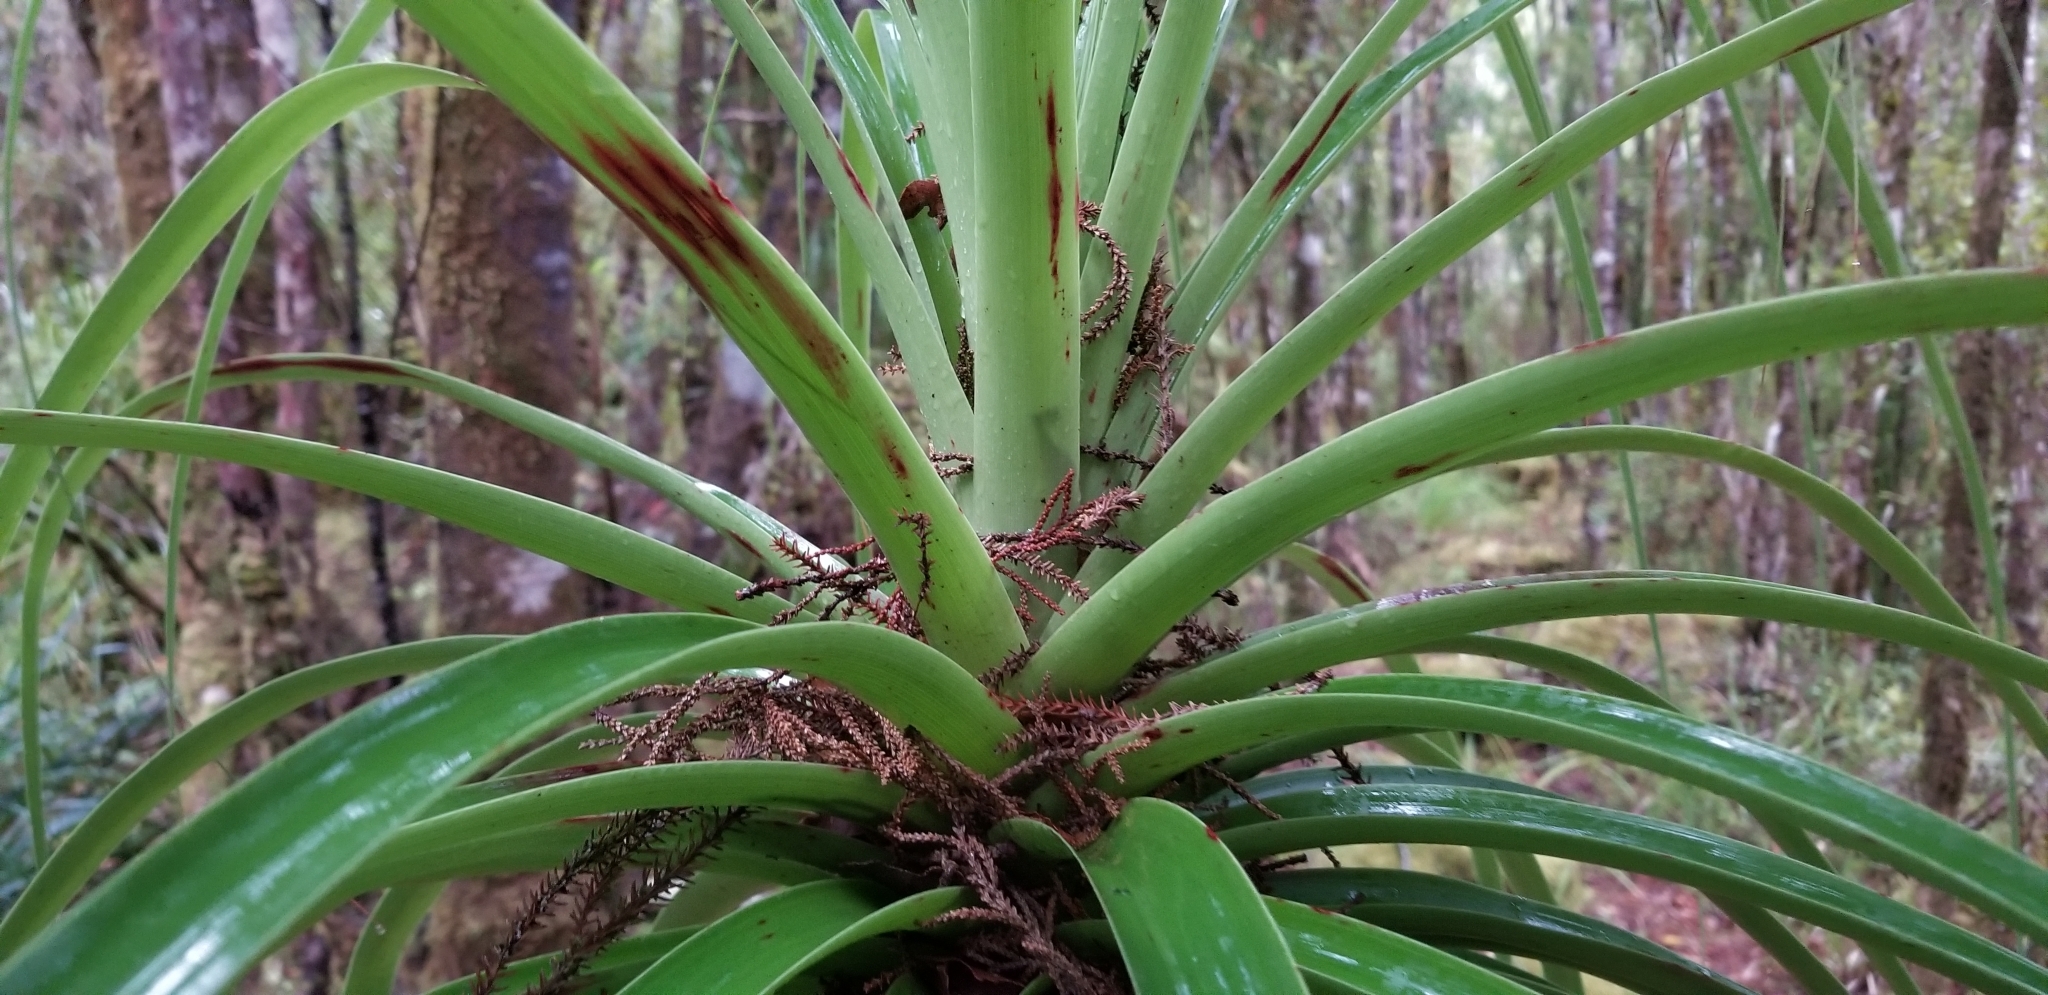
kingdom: Plantae
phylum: Tracheophyta
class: Magnoliopsida
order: Ericales
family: Ericaceae
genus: Dracophyllum
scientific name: Dracophyllum elegantissimum
